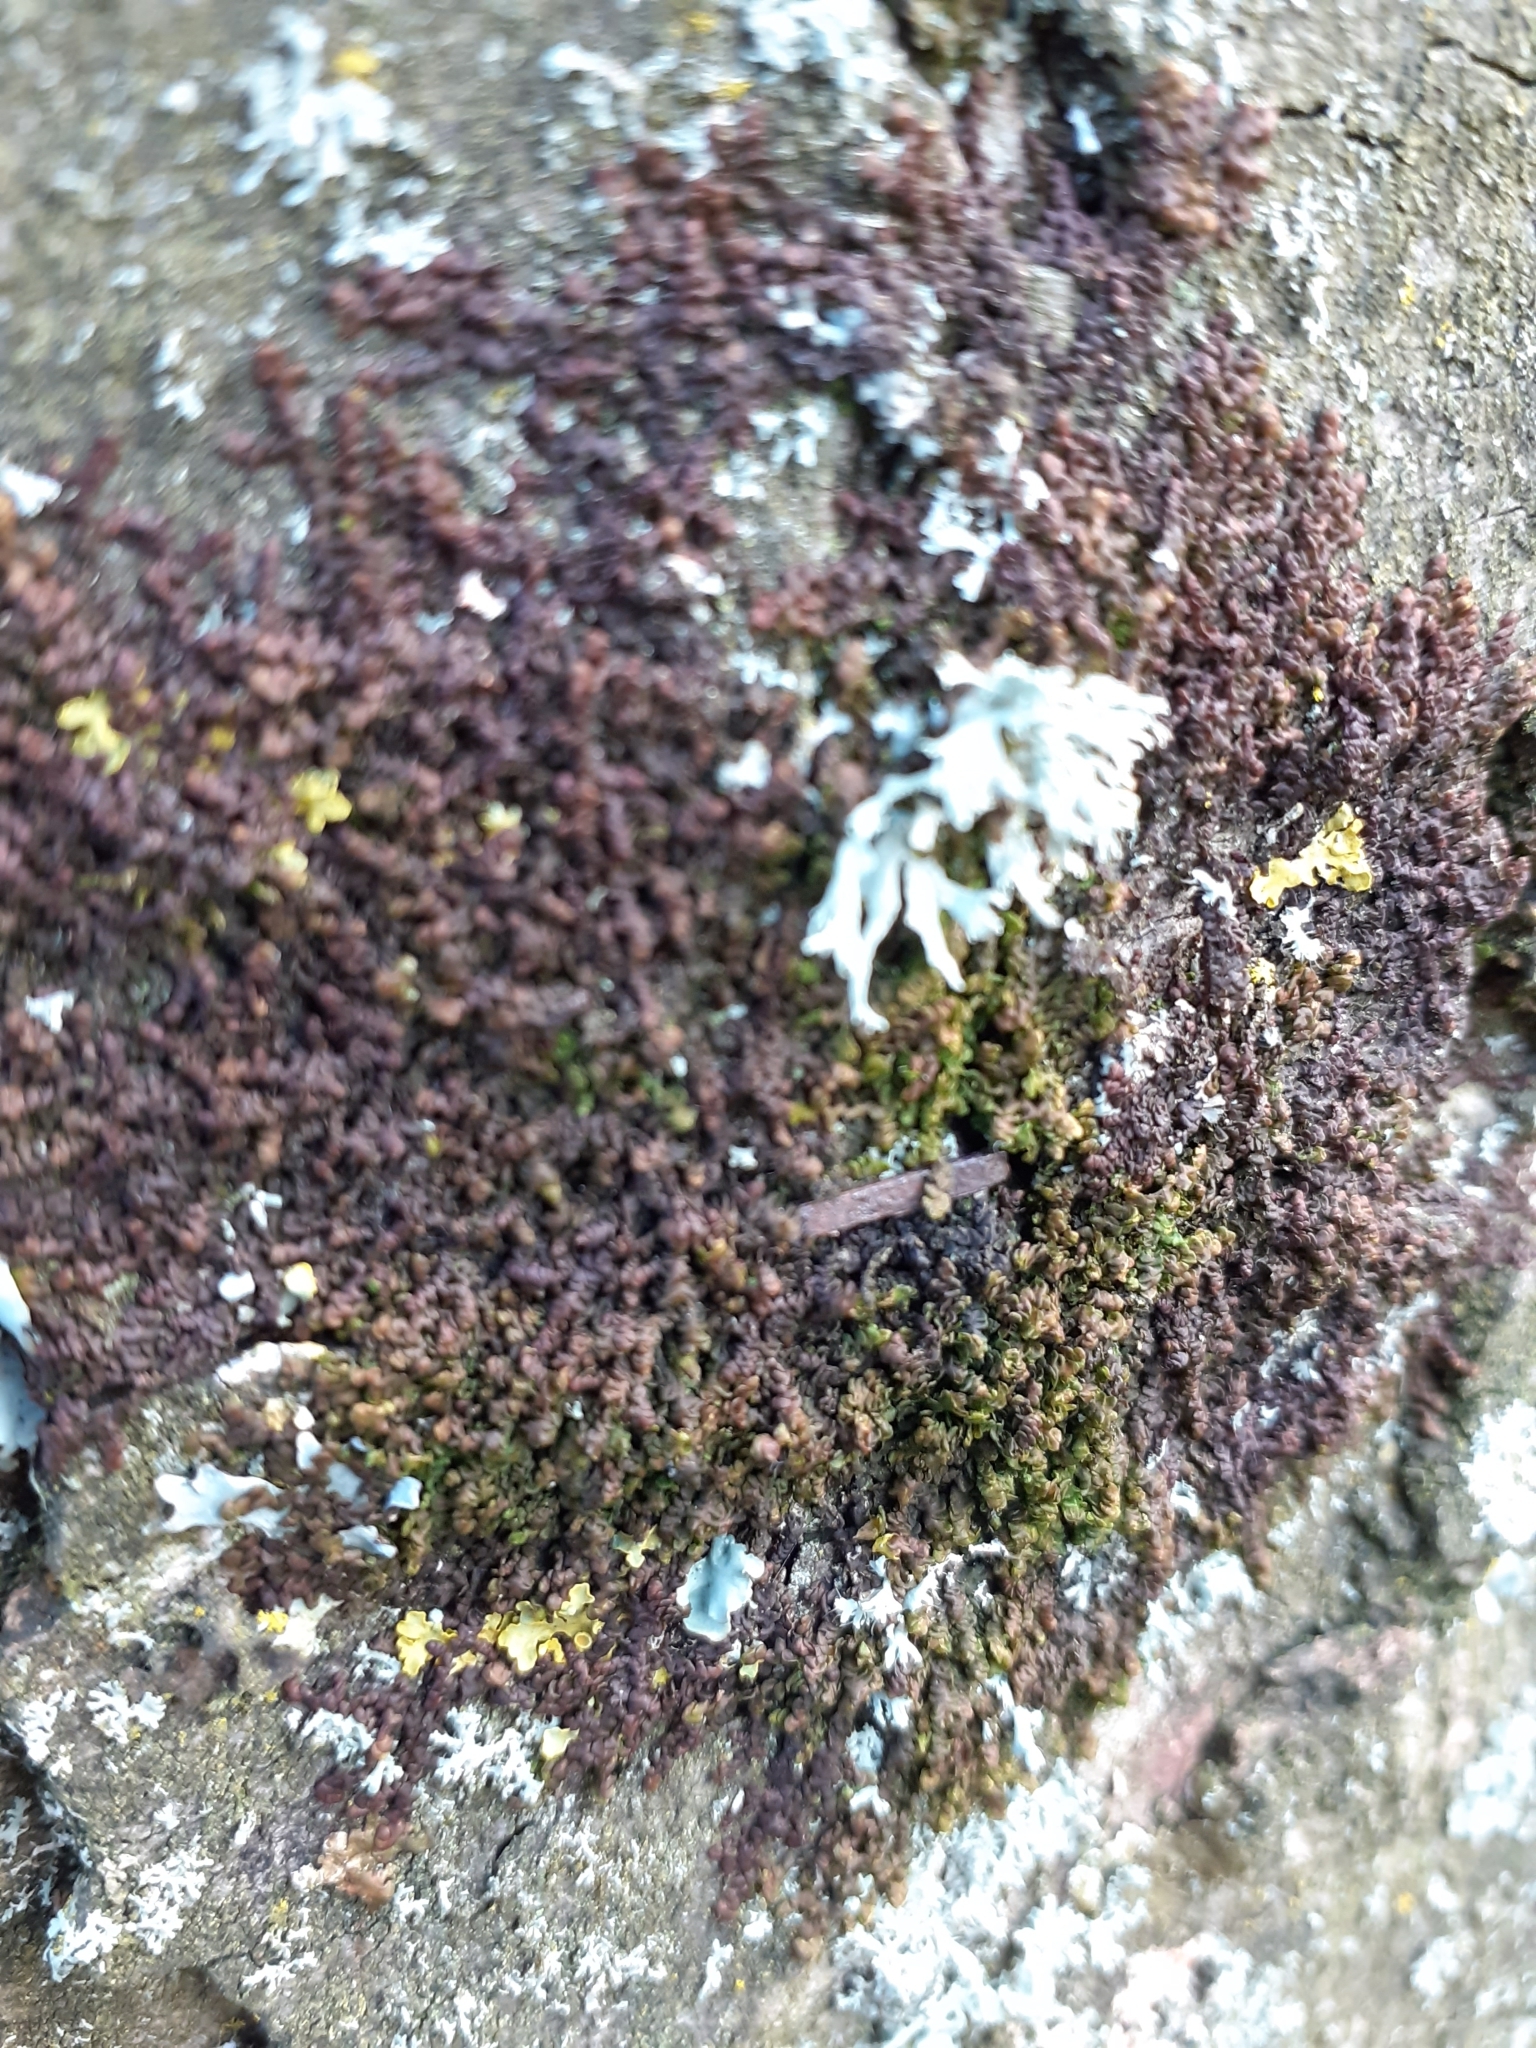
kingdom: Plantae
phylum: Marchantiophyta
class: Jungermanniopsida
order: Porellales
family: Frullaniaceae
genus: Frullania
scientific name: Frullania dilatata
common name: Dilated scalewort
